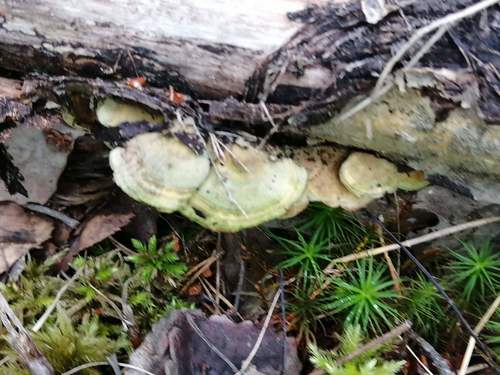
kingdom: Fungi
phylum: Basidiomycota
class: Agaricomycetes
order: Polyporales
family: Polyporaceae
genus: Trametes
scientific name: Trametes hirsuta
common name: Hairy bracket
